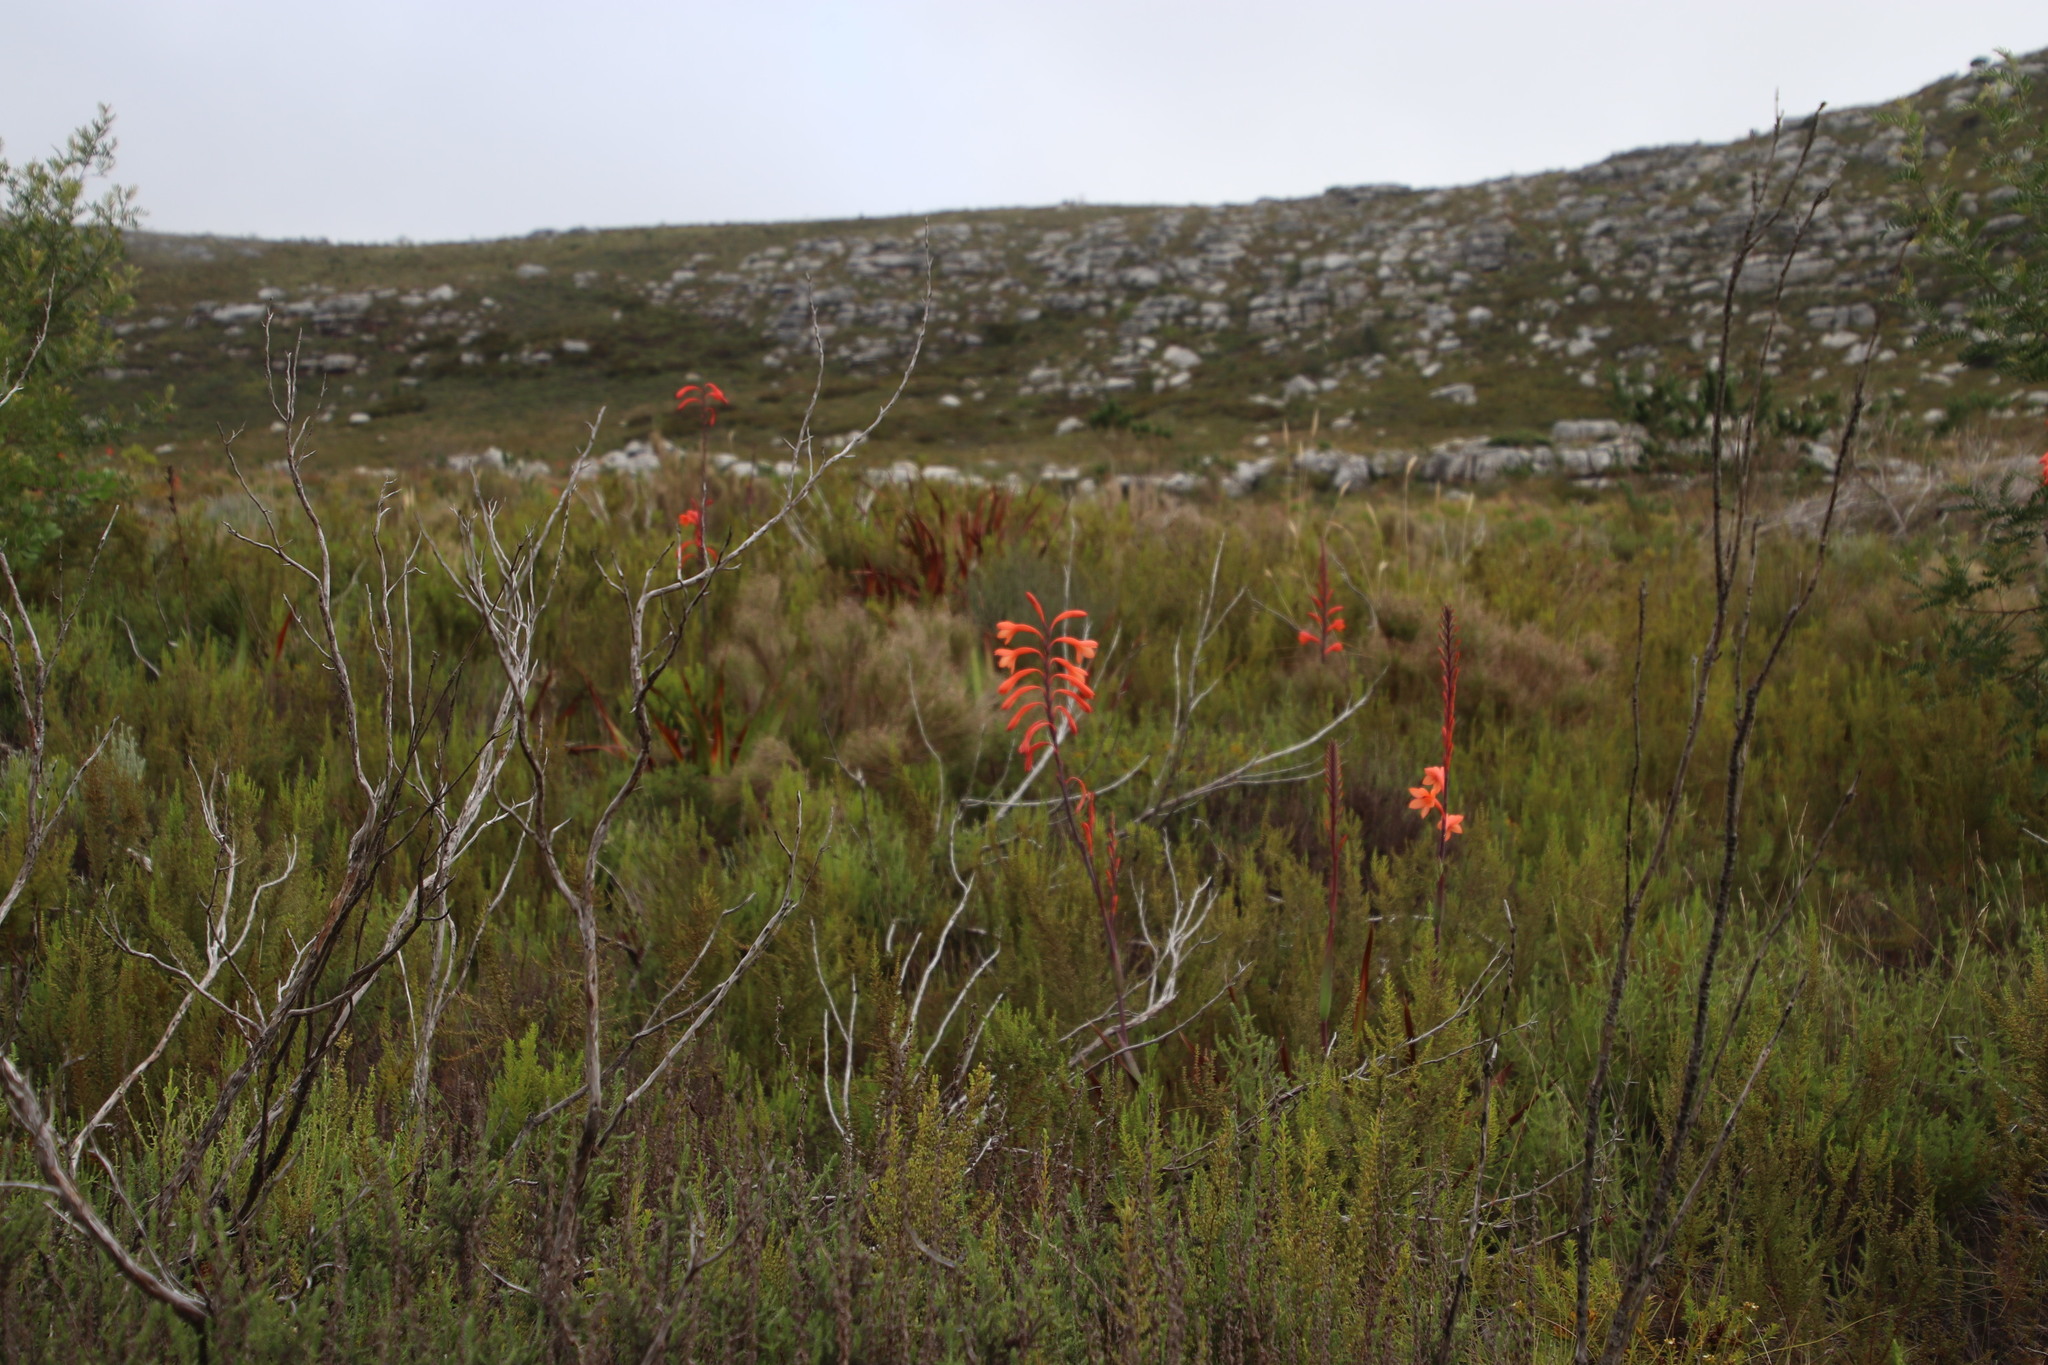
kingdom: Plantae
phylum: Tracheophyta
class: Liliopsida
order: Asparagales
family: Iridaceae
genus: Watsonia
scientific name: Watsonia tabularis
